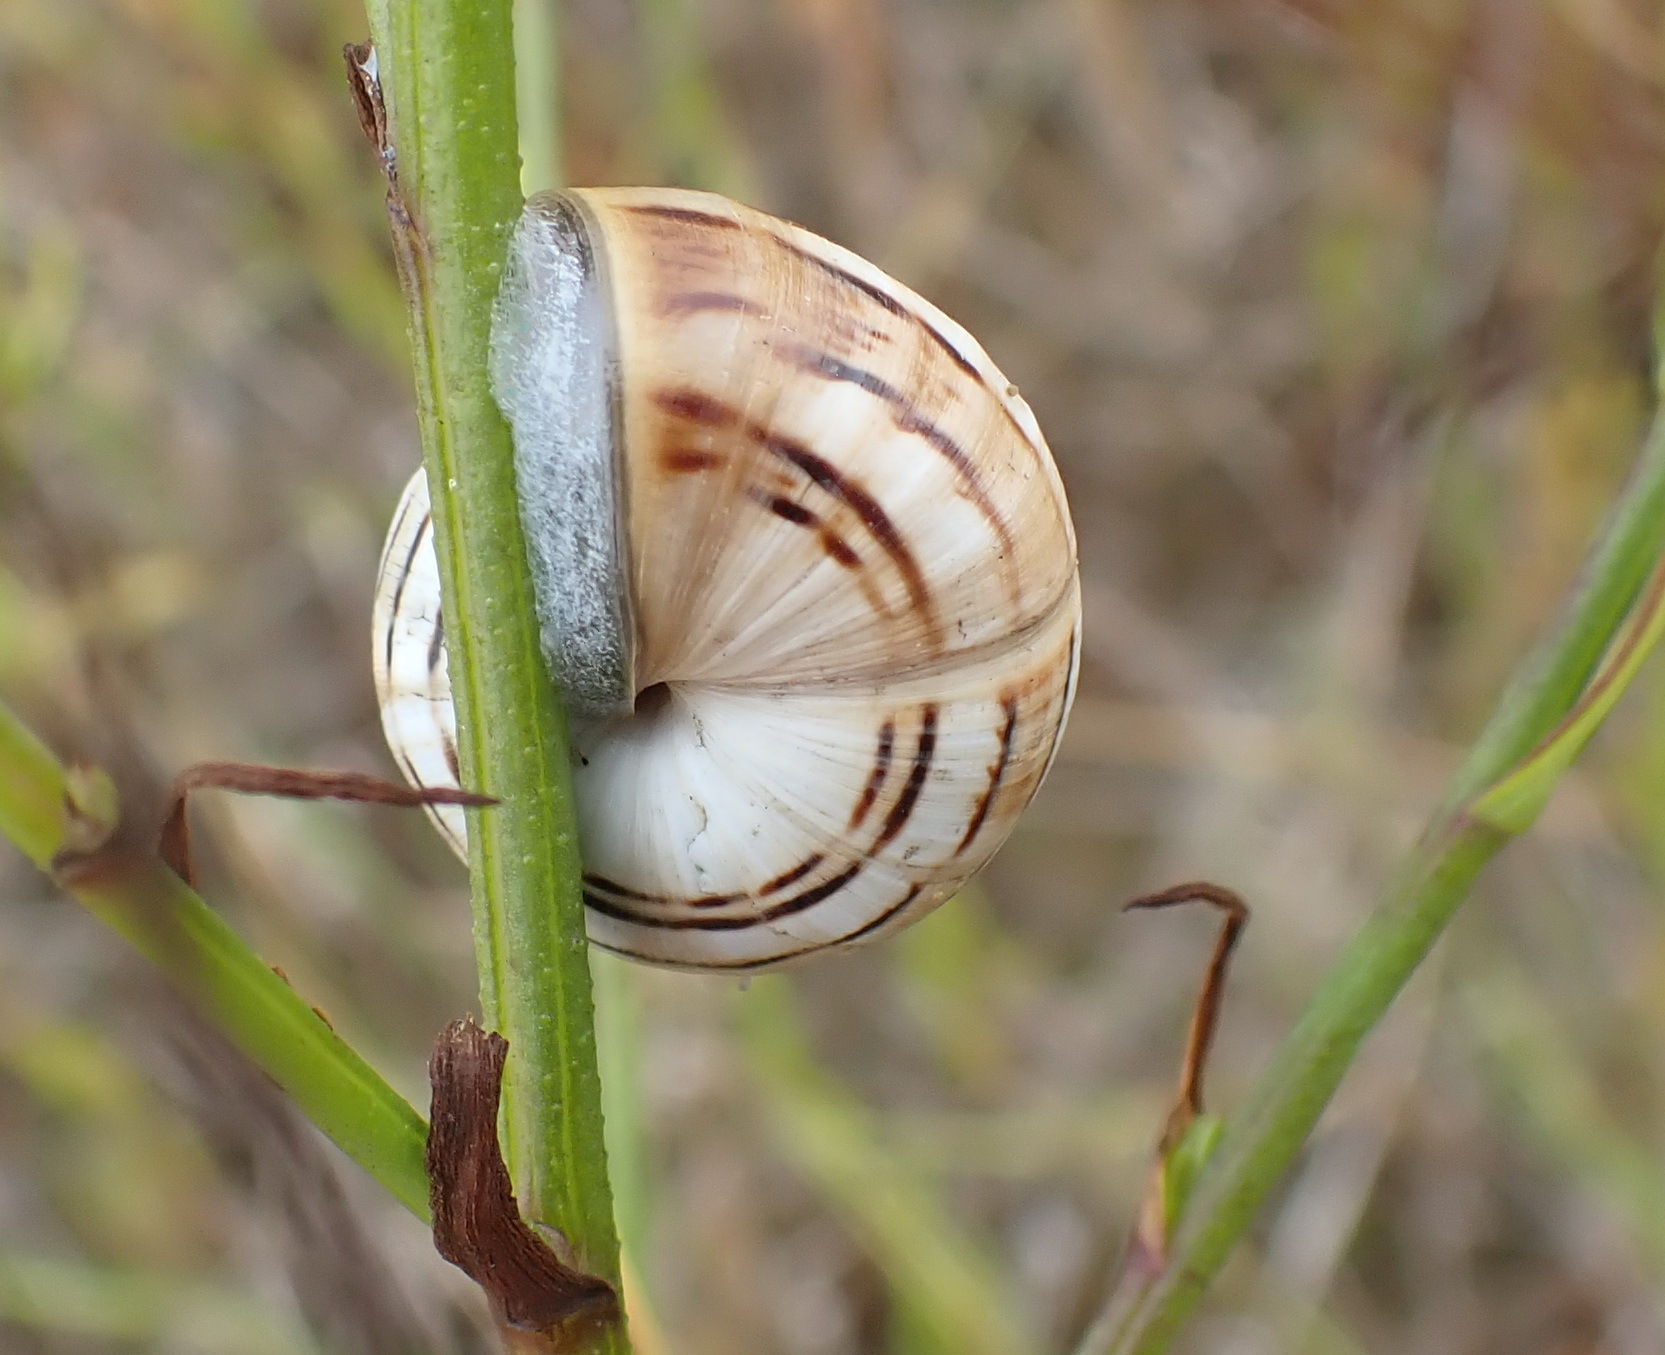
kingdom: Animalia
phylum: Mollusca
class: Gastropoda
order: Stylommatophora
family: Helicidae
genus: Theba
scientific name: Theba pisana
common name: White snail
